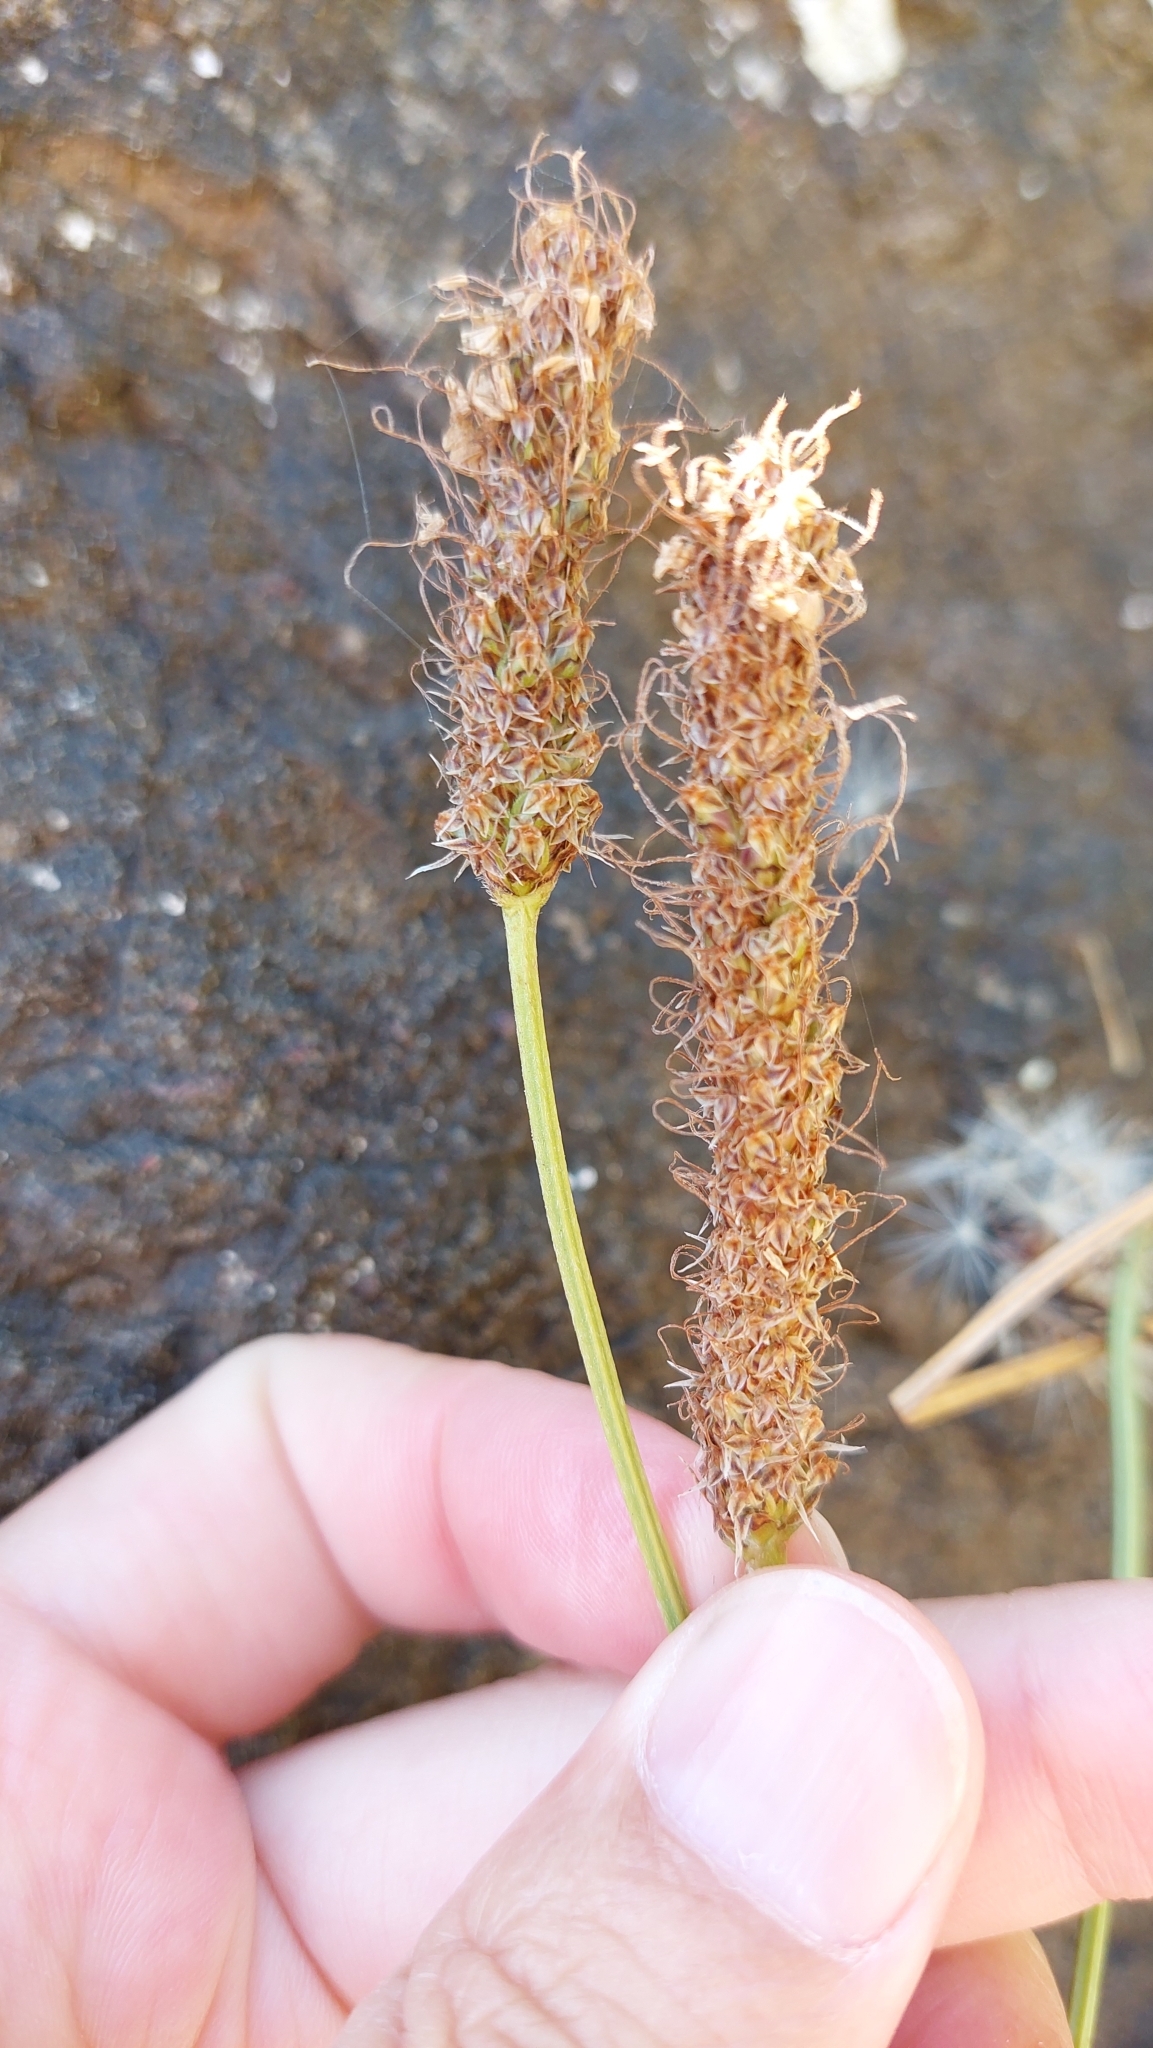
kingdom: Plantae
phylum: Tracheophyta
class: Magnoliopsida
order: Lamiales
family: Plantaginaceae
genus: Plantago
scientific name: Plantago lanceolata
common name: Ribwort plantain
